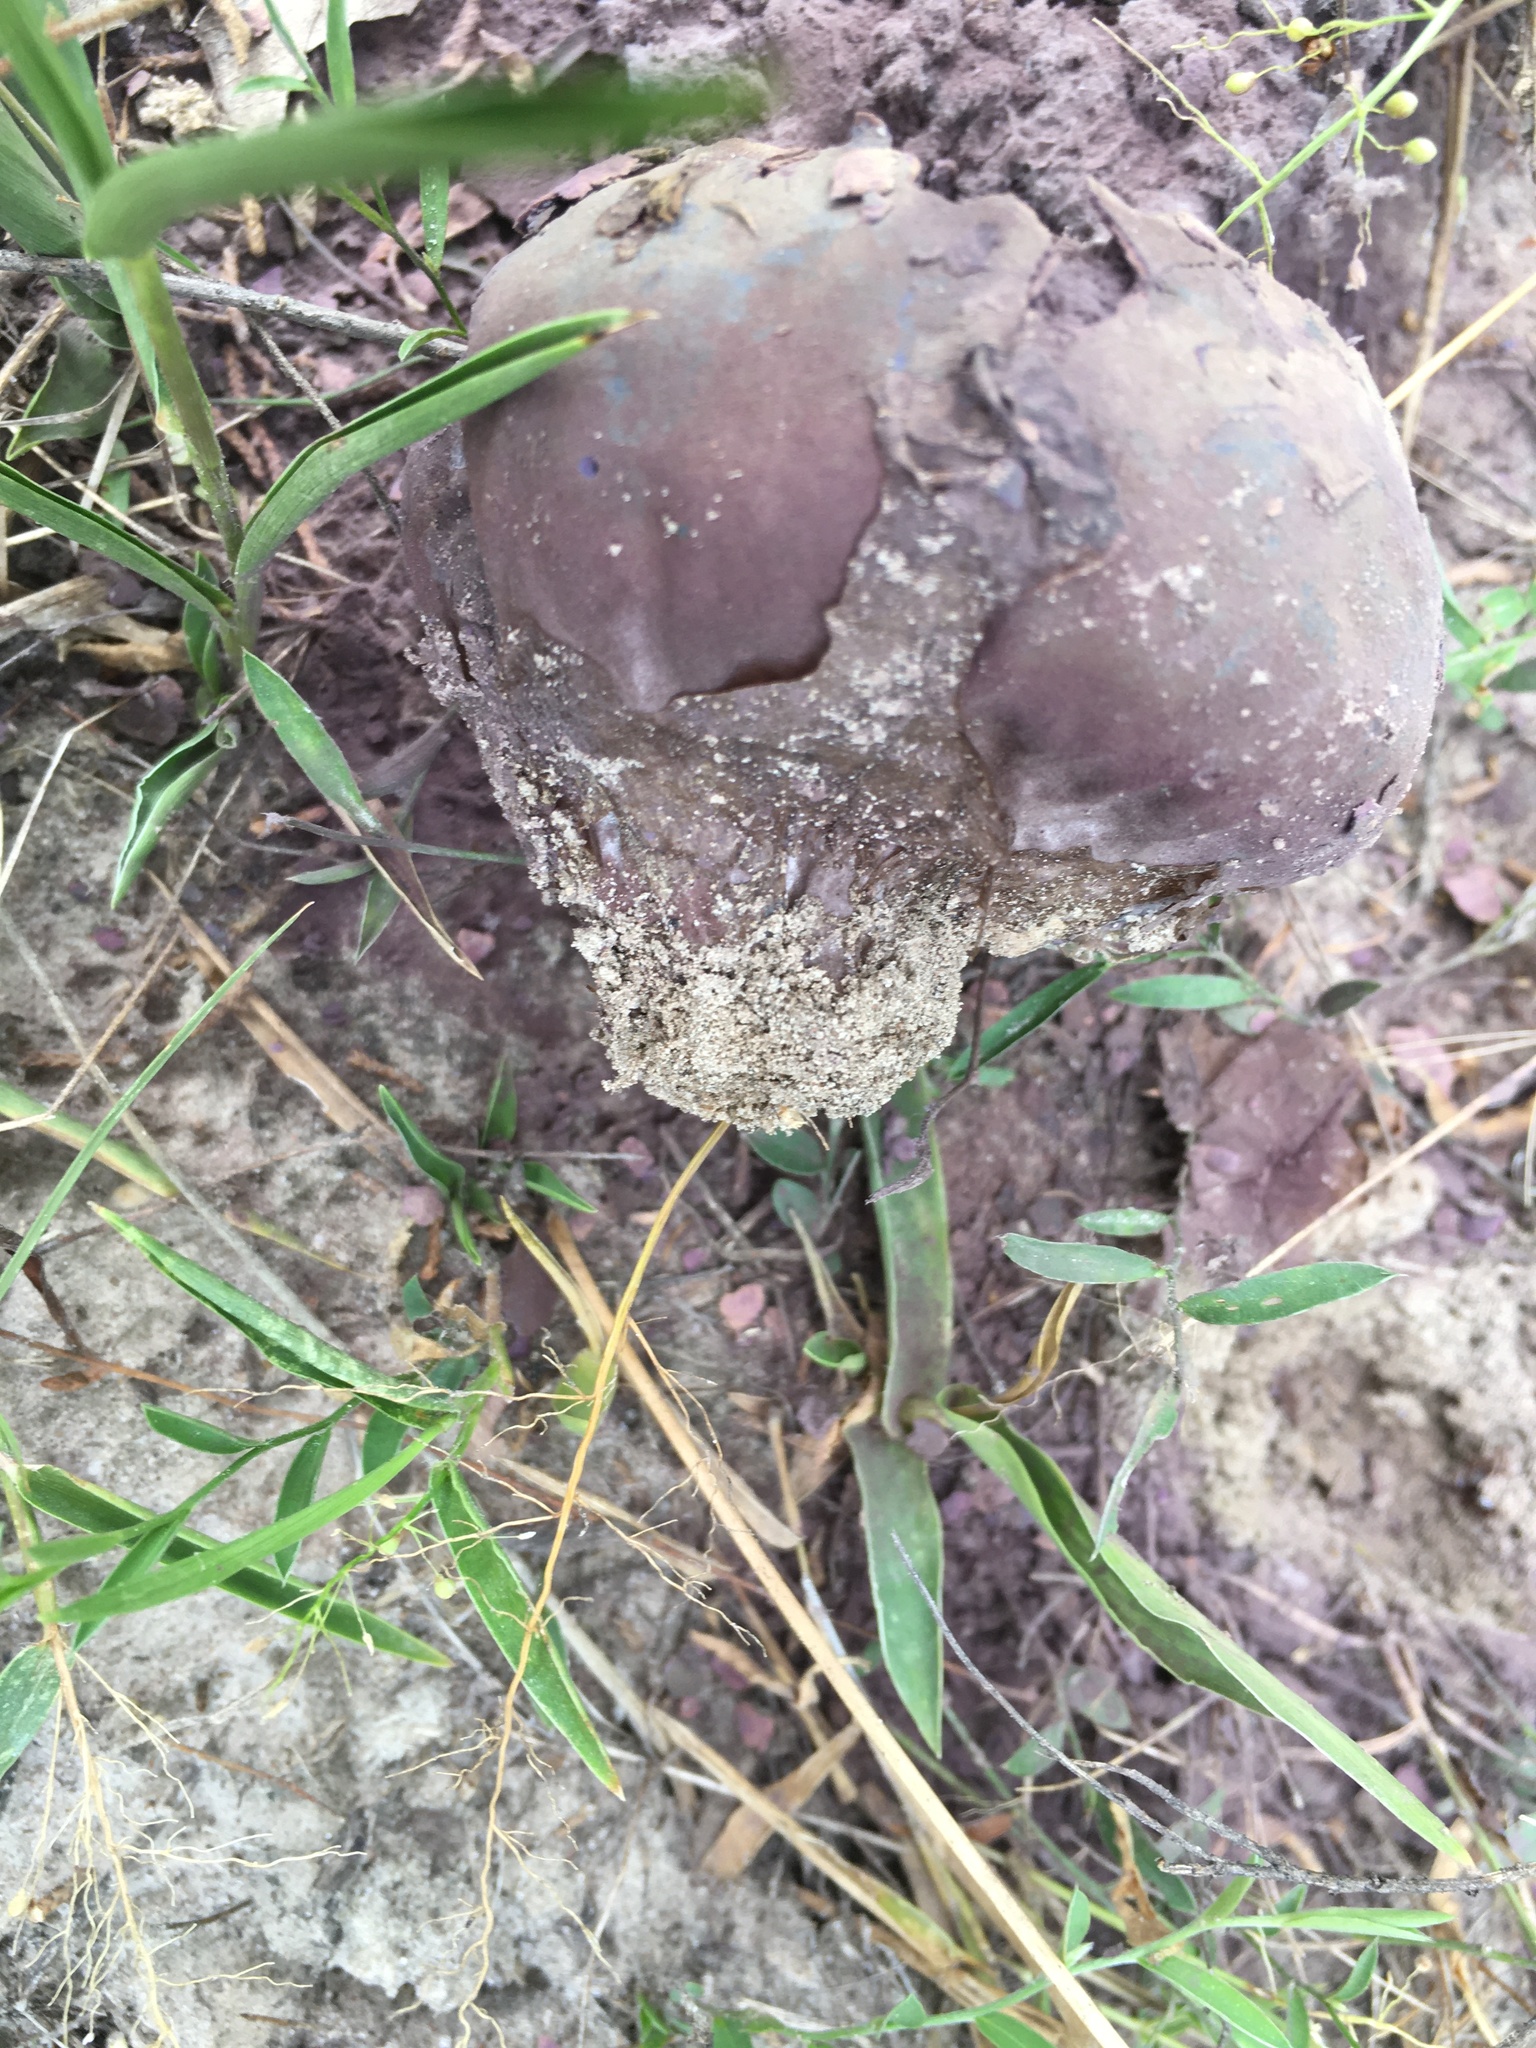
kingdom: Fungi
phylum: Basidiomycota
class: Agaricomycetes
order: Agaricales
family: Lycoperdaceae
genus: Calvatia
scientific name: Calvatia cyathiformis
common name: Purple-spored puffball
